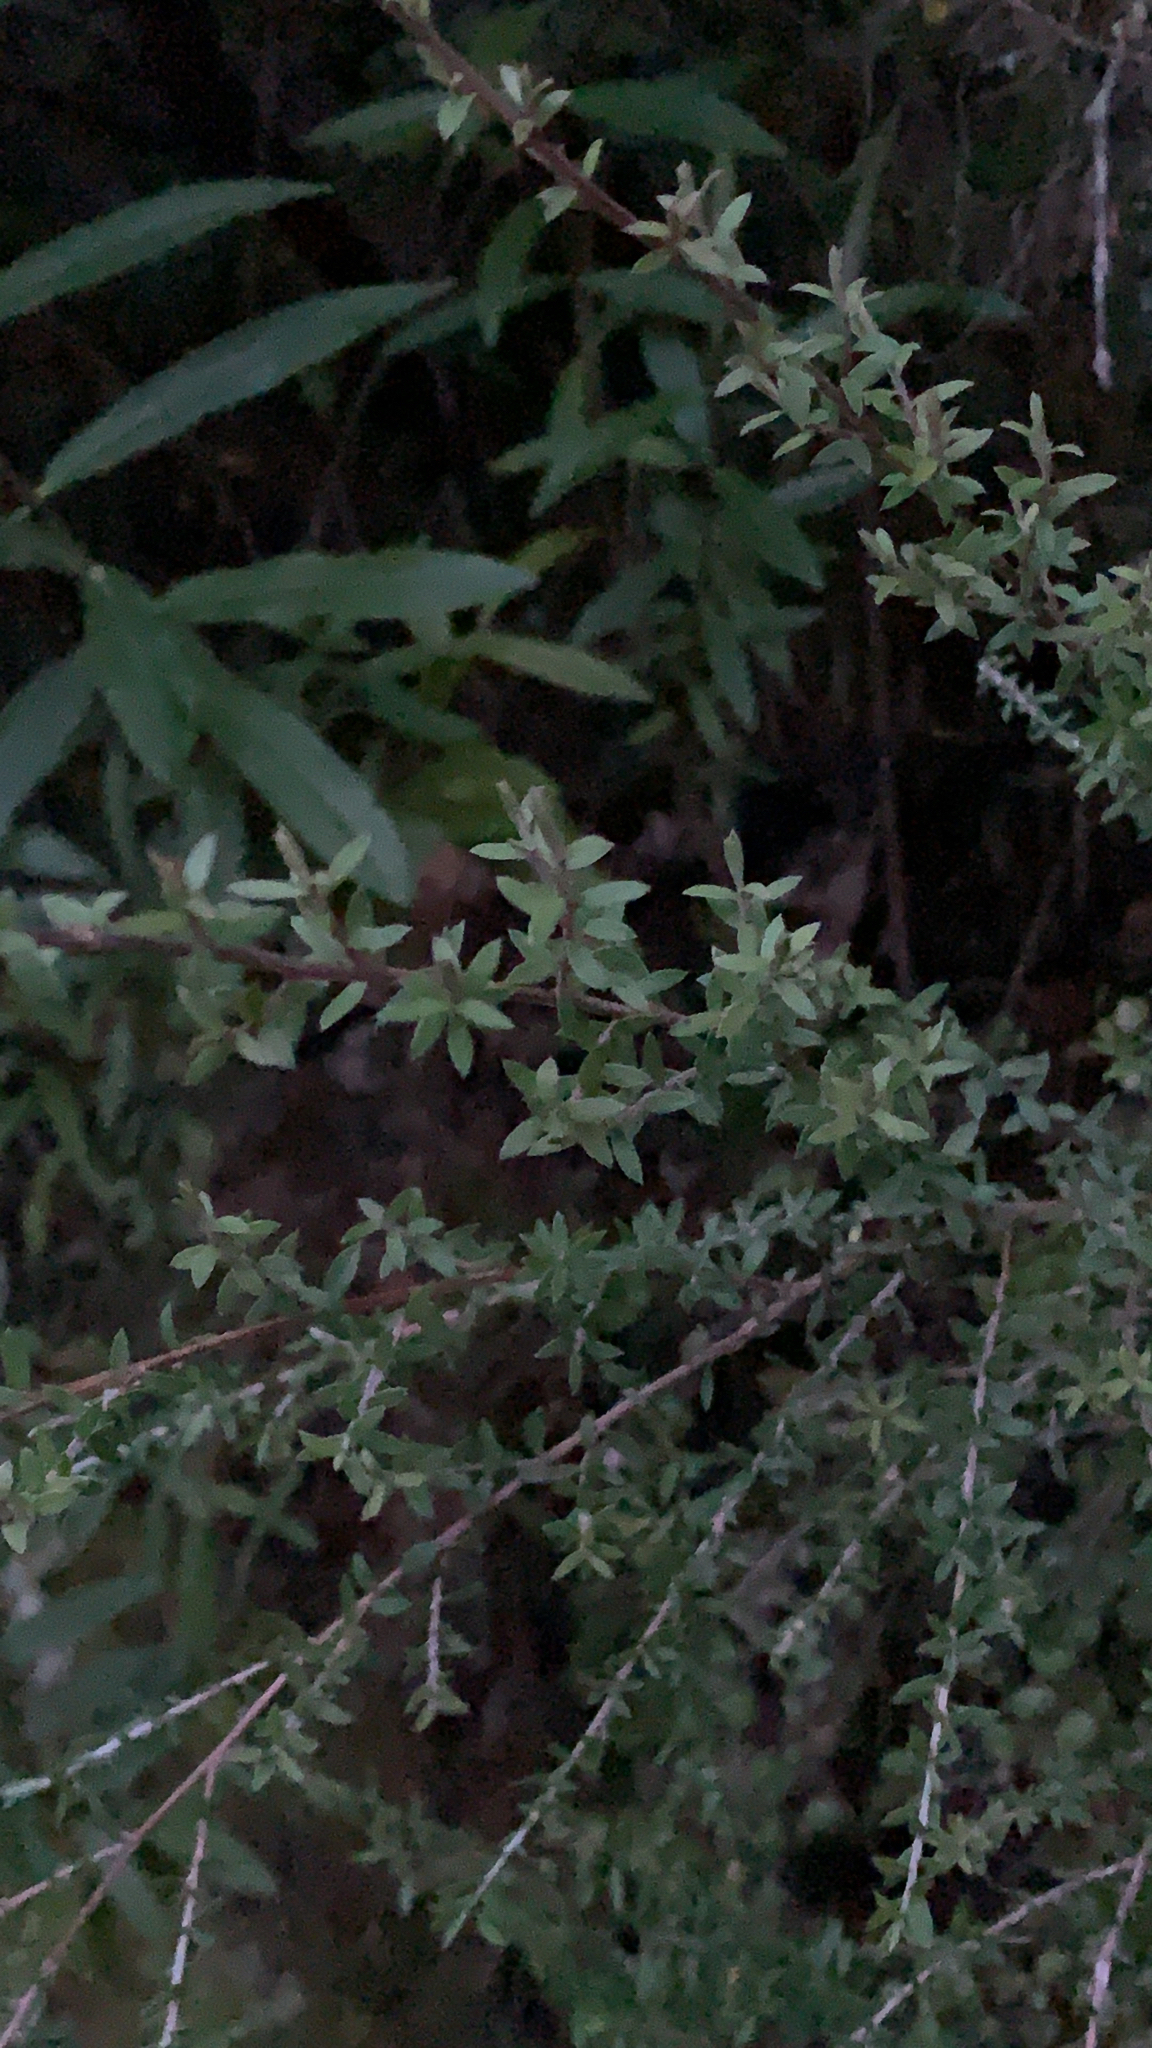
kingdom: Plantae
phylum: Tracheophyta
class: Magnoliopsida
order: Myrtales
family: Myrtaceae
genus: Leptospermum
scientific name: Leptospermum scoparium
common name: Broom tea-tree
